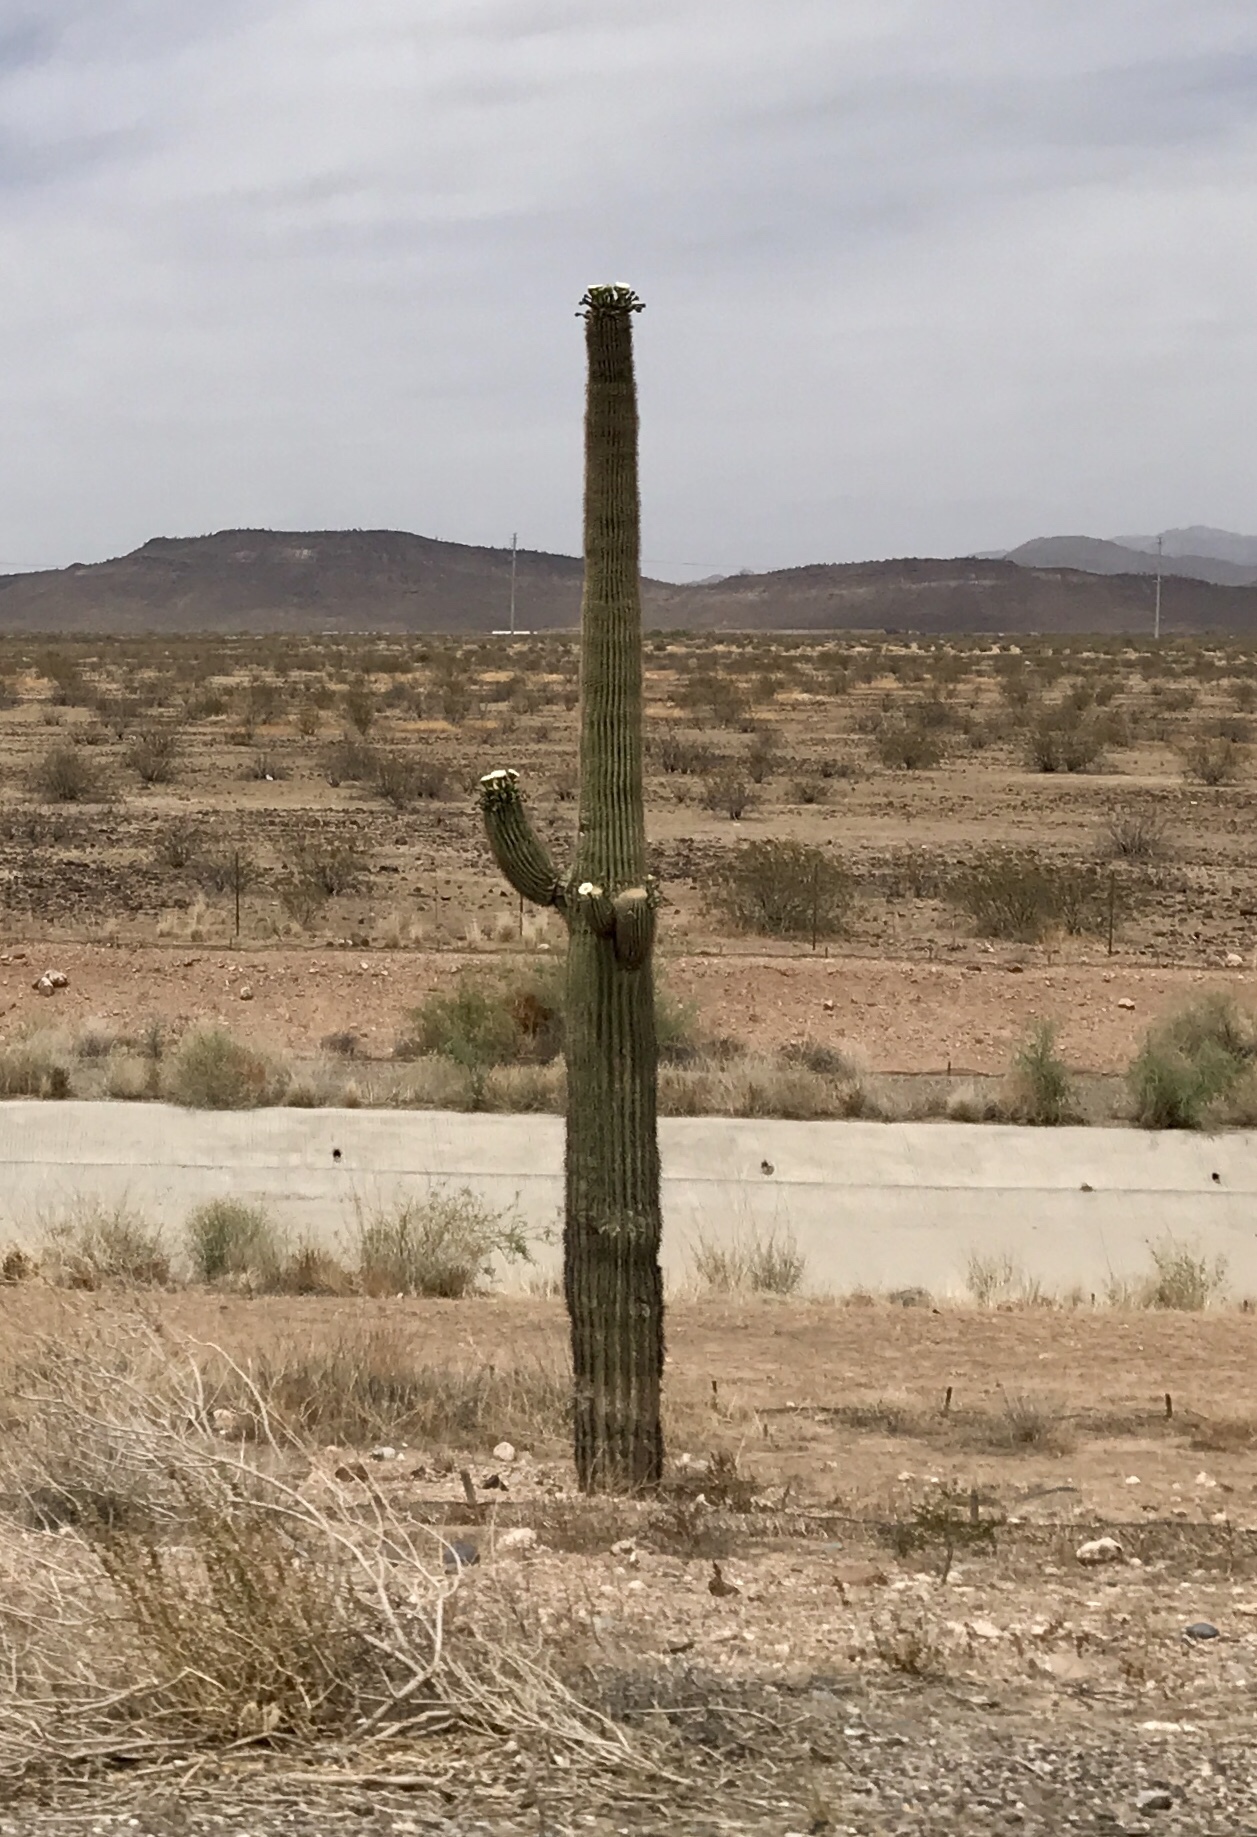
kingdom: Plantae
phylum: Tracheophyta
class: Magnoliopsida
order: Caryophyllales
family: Cactaceae
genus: Carnegiea
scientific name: Carnegiea gigantea
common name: Saguaro
